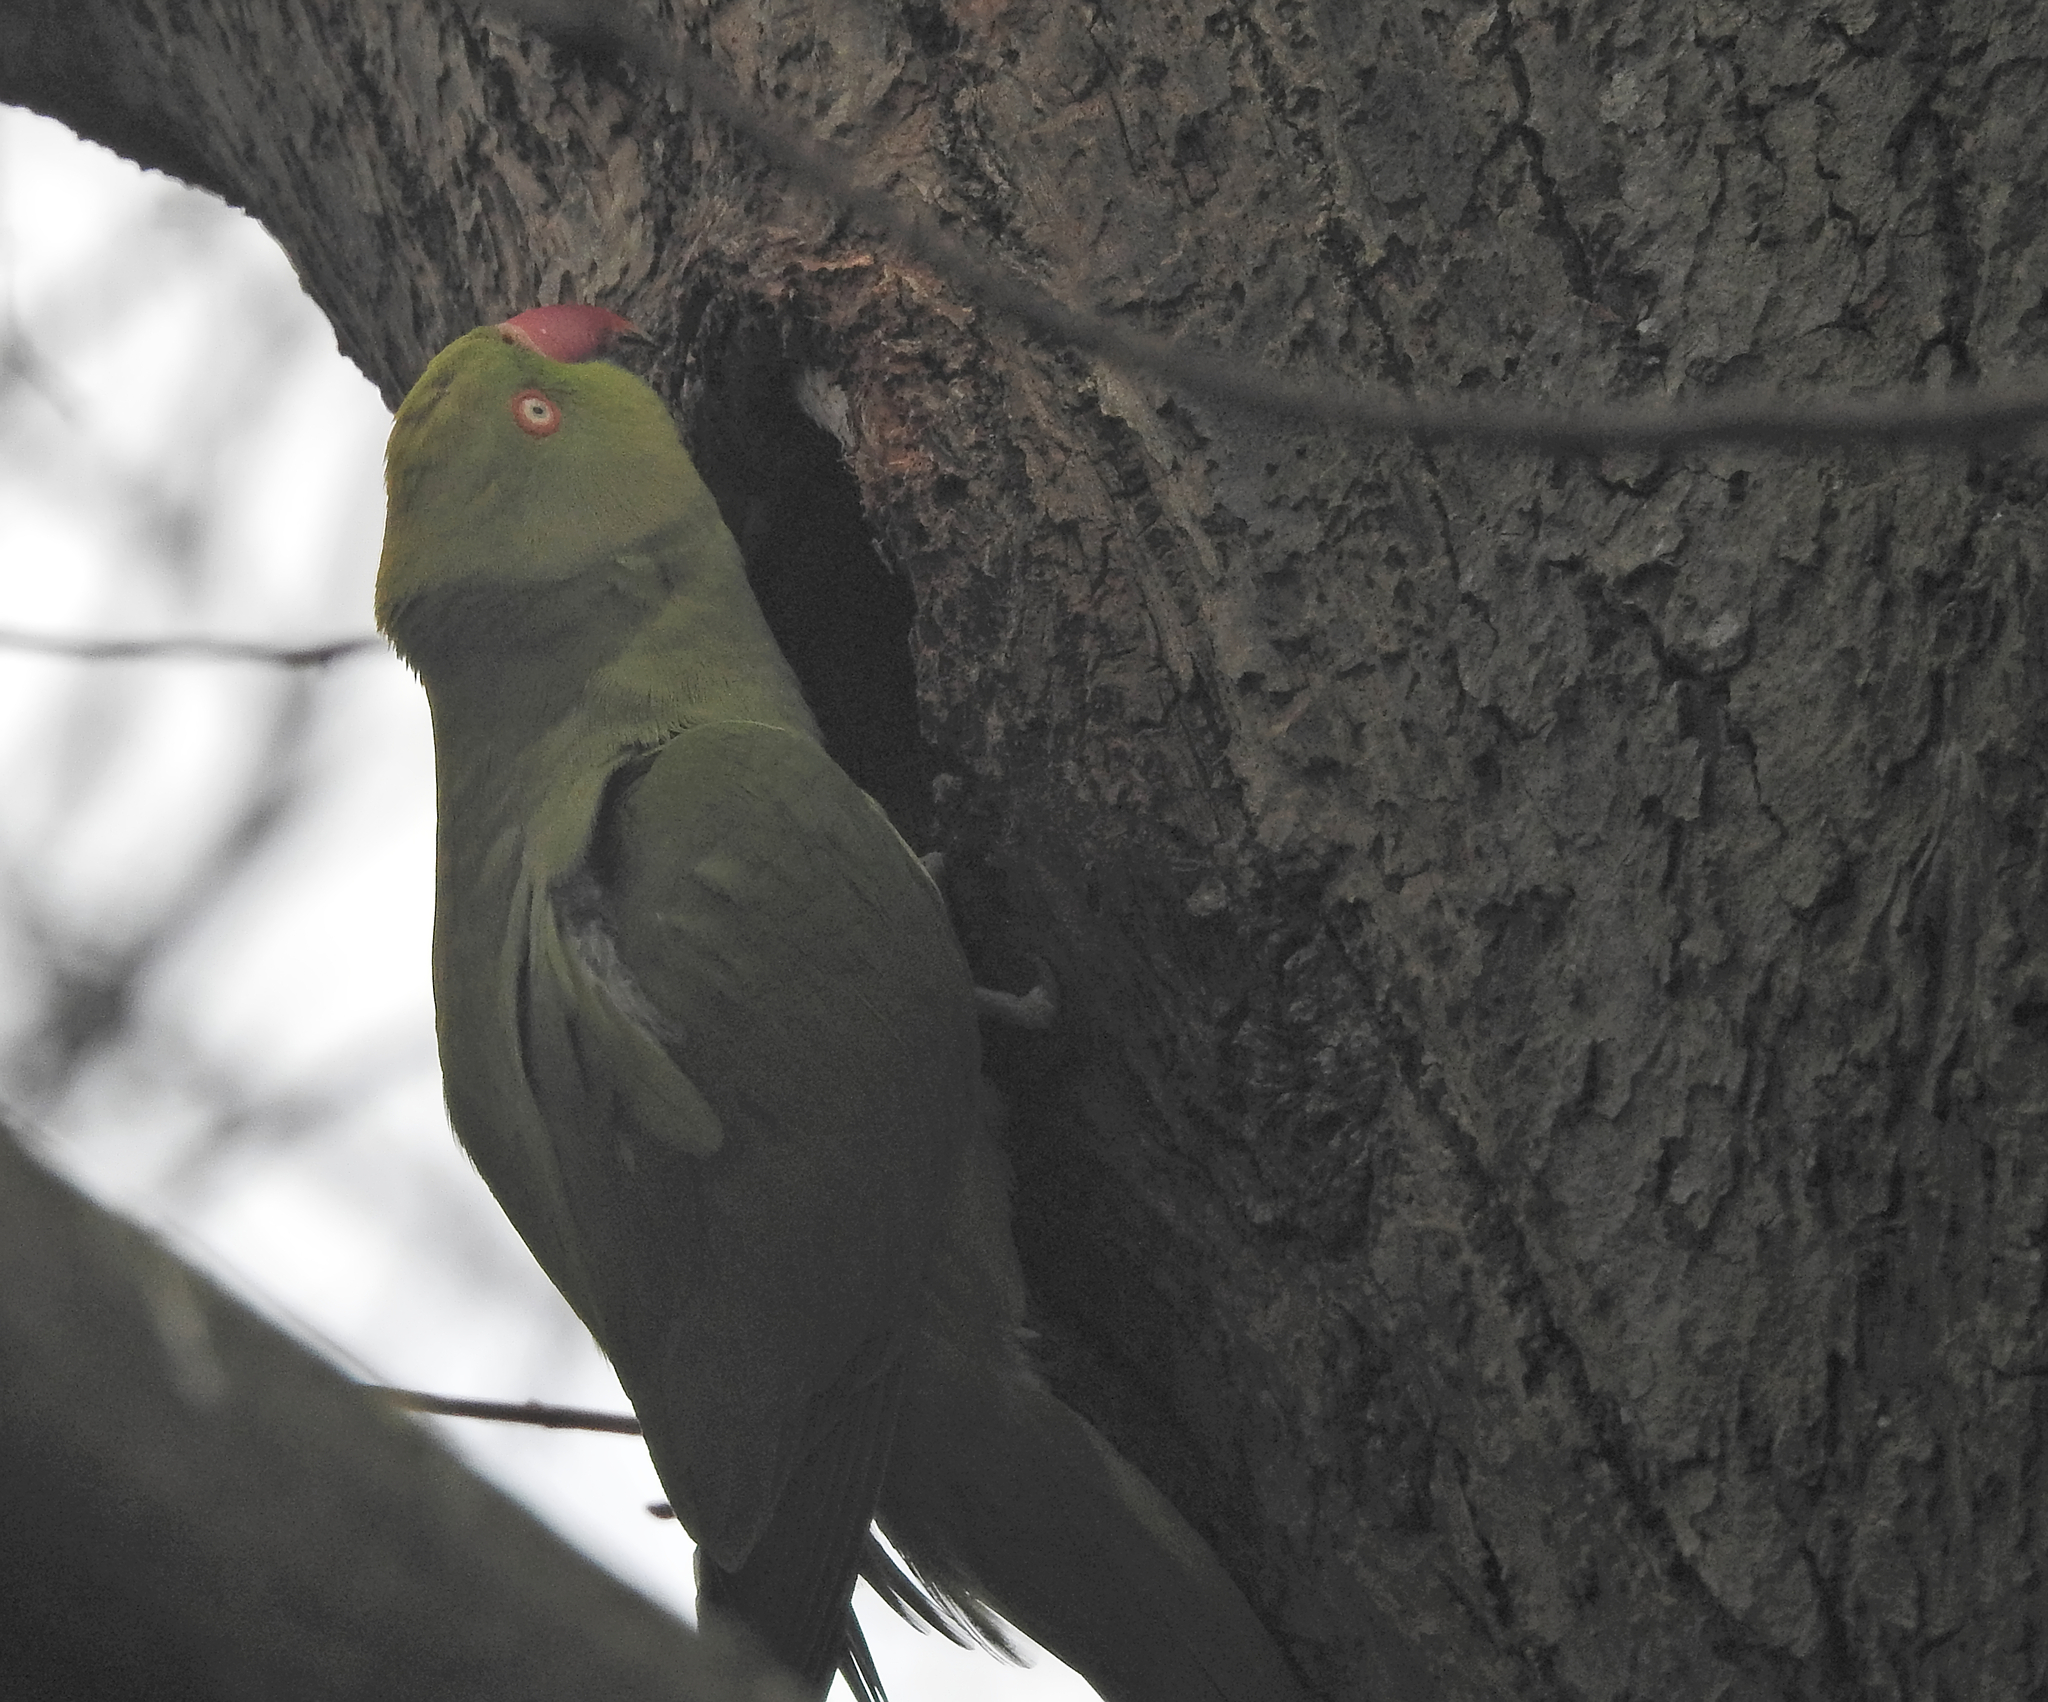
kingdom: Animalia
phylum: Chordata
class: Aves
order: Psittaciformes
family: Psittacidae
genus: Psittacula
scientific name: Psittacula krameri
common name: Rose-ringed parakeet
